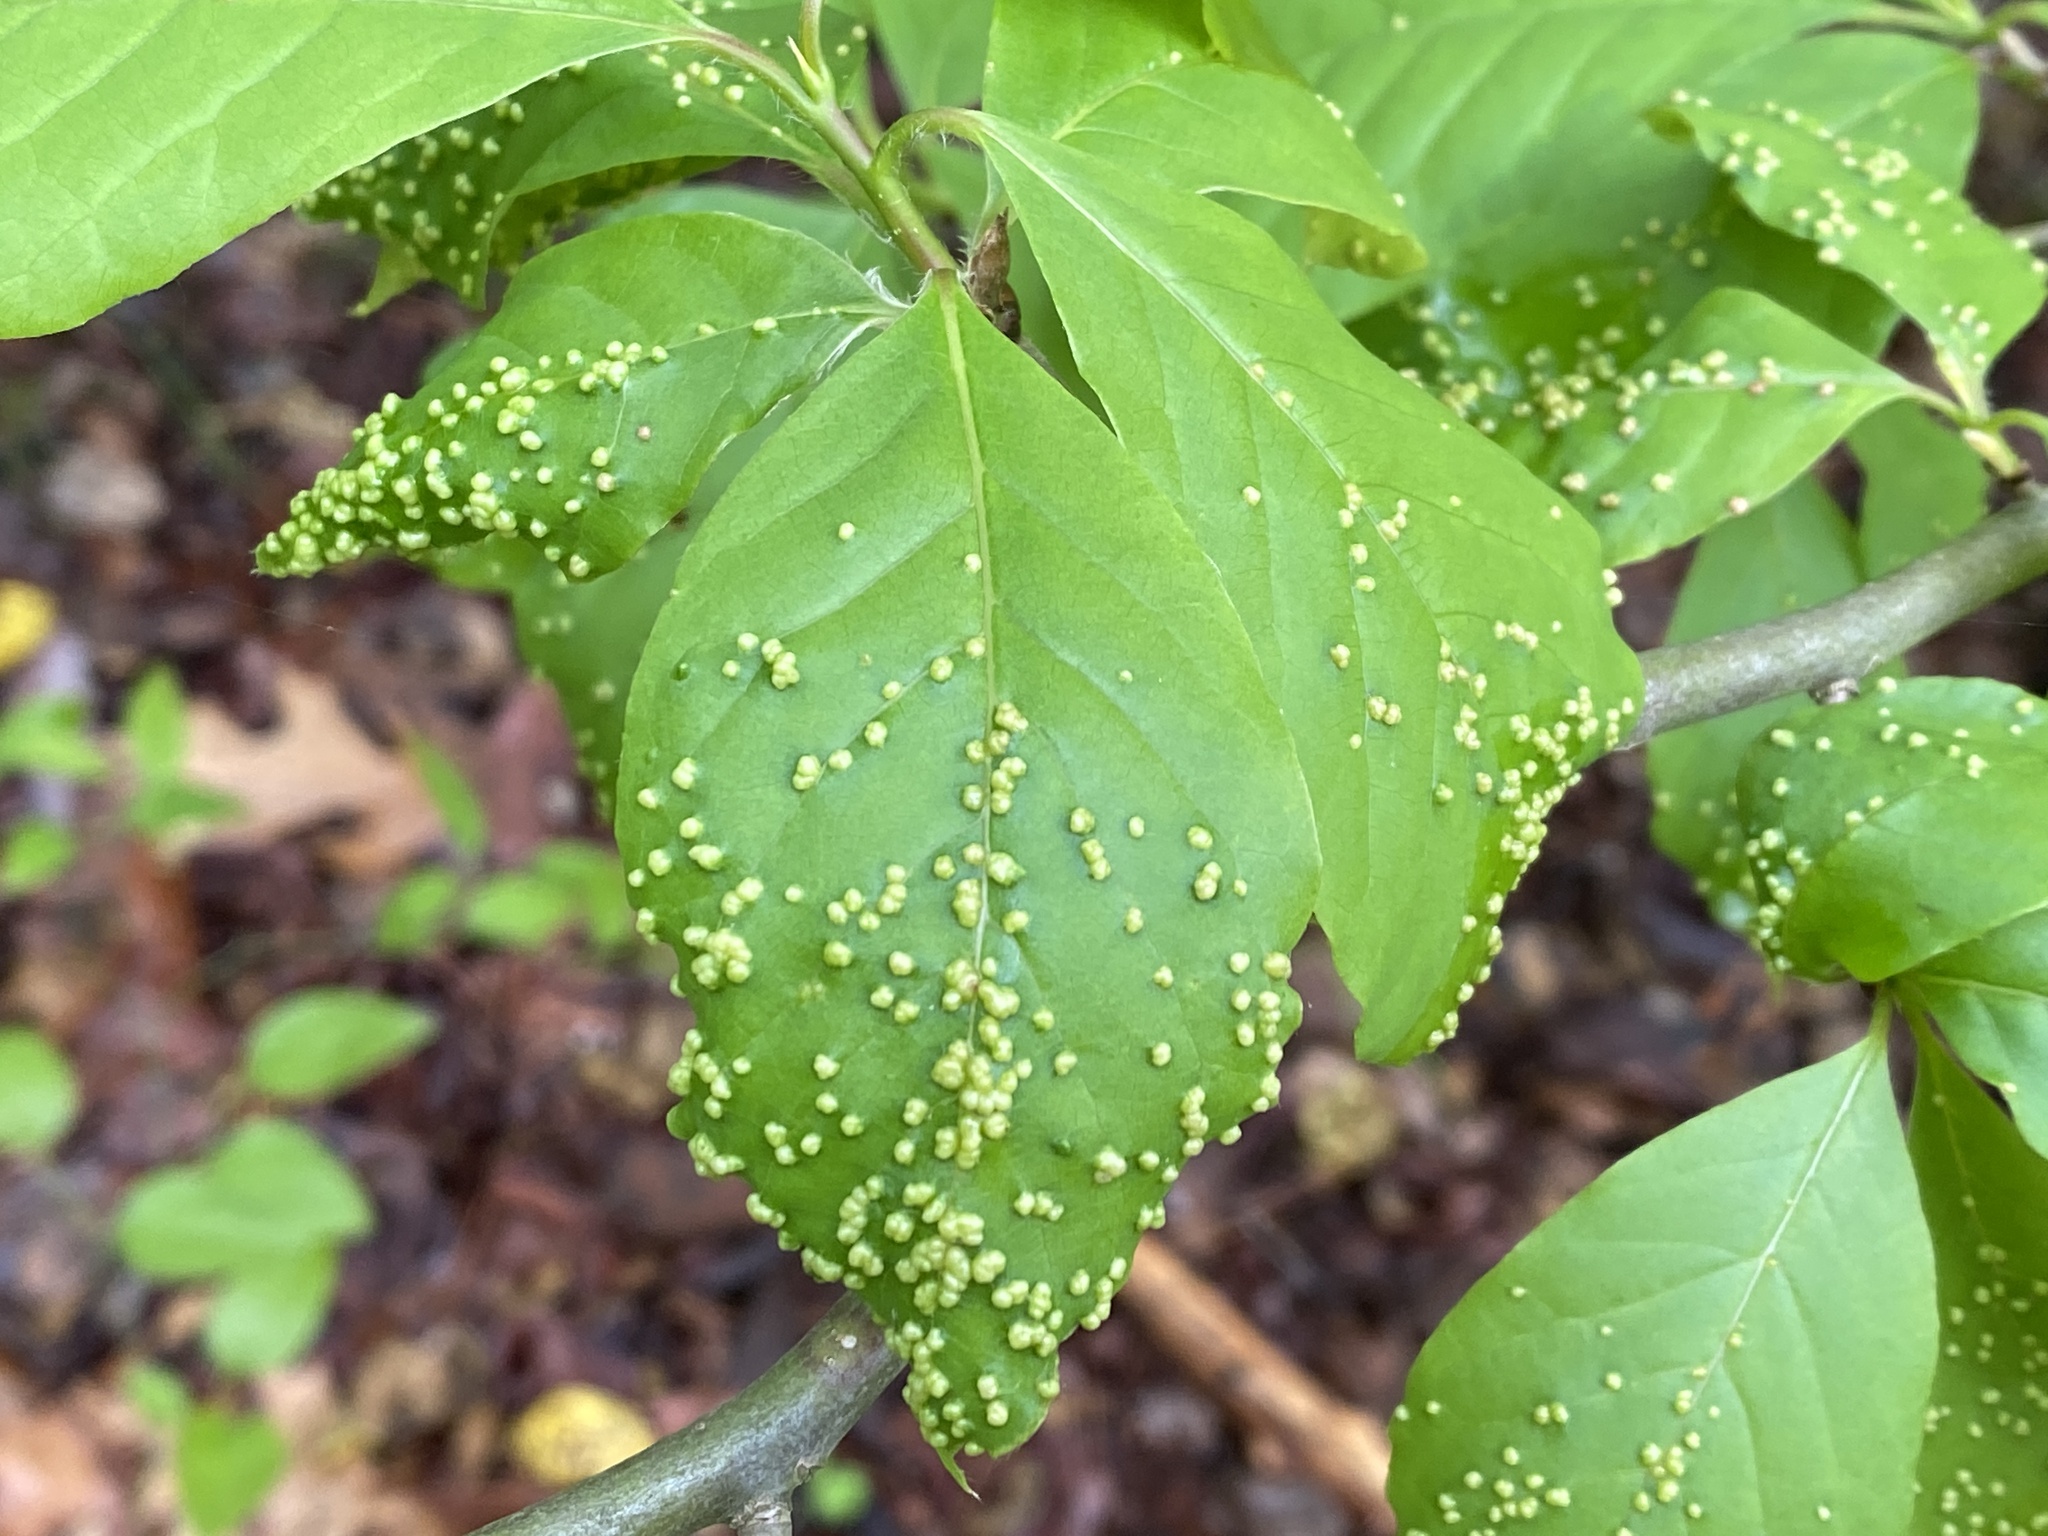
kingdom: Animalia
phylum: Arthropoda
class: Arachnida
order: Trombidiformes
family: Eriophyidae
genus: Aceria
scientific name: Aceria
